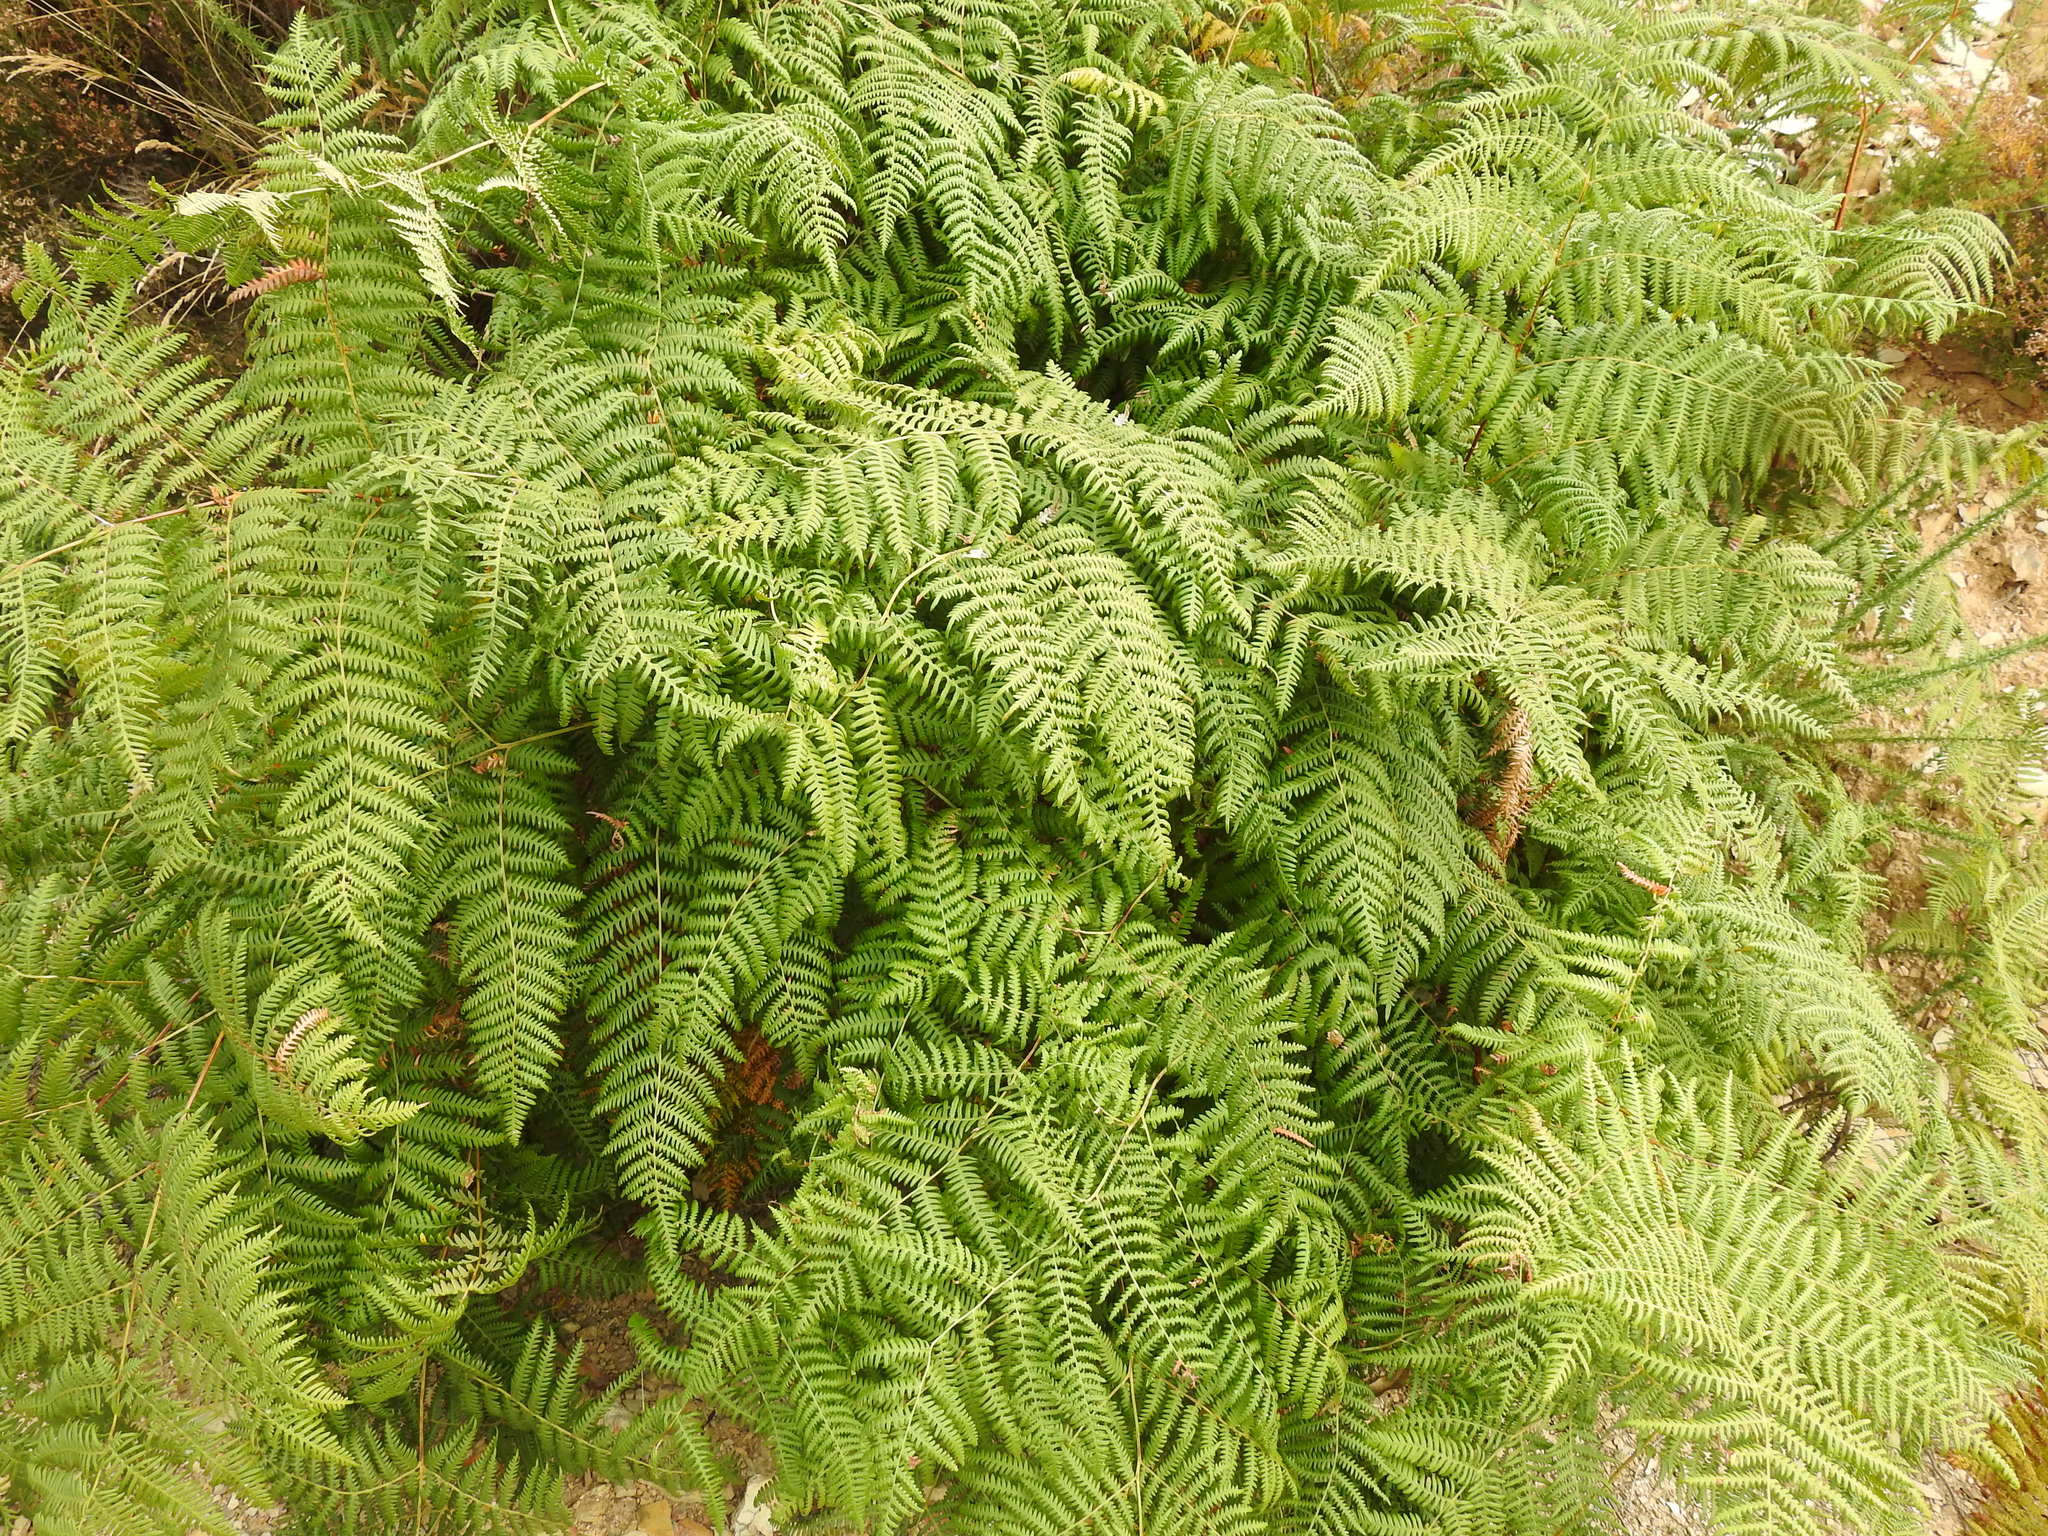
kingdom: Plantae
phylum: Tracheophyta
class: Polypodiopsida
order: Polypodiales
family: Dennstaedtiaceae
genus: Pteridium
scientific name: Pteridium aquilinum
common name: Bracken
